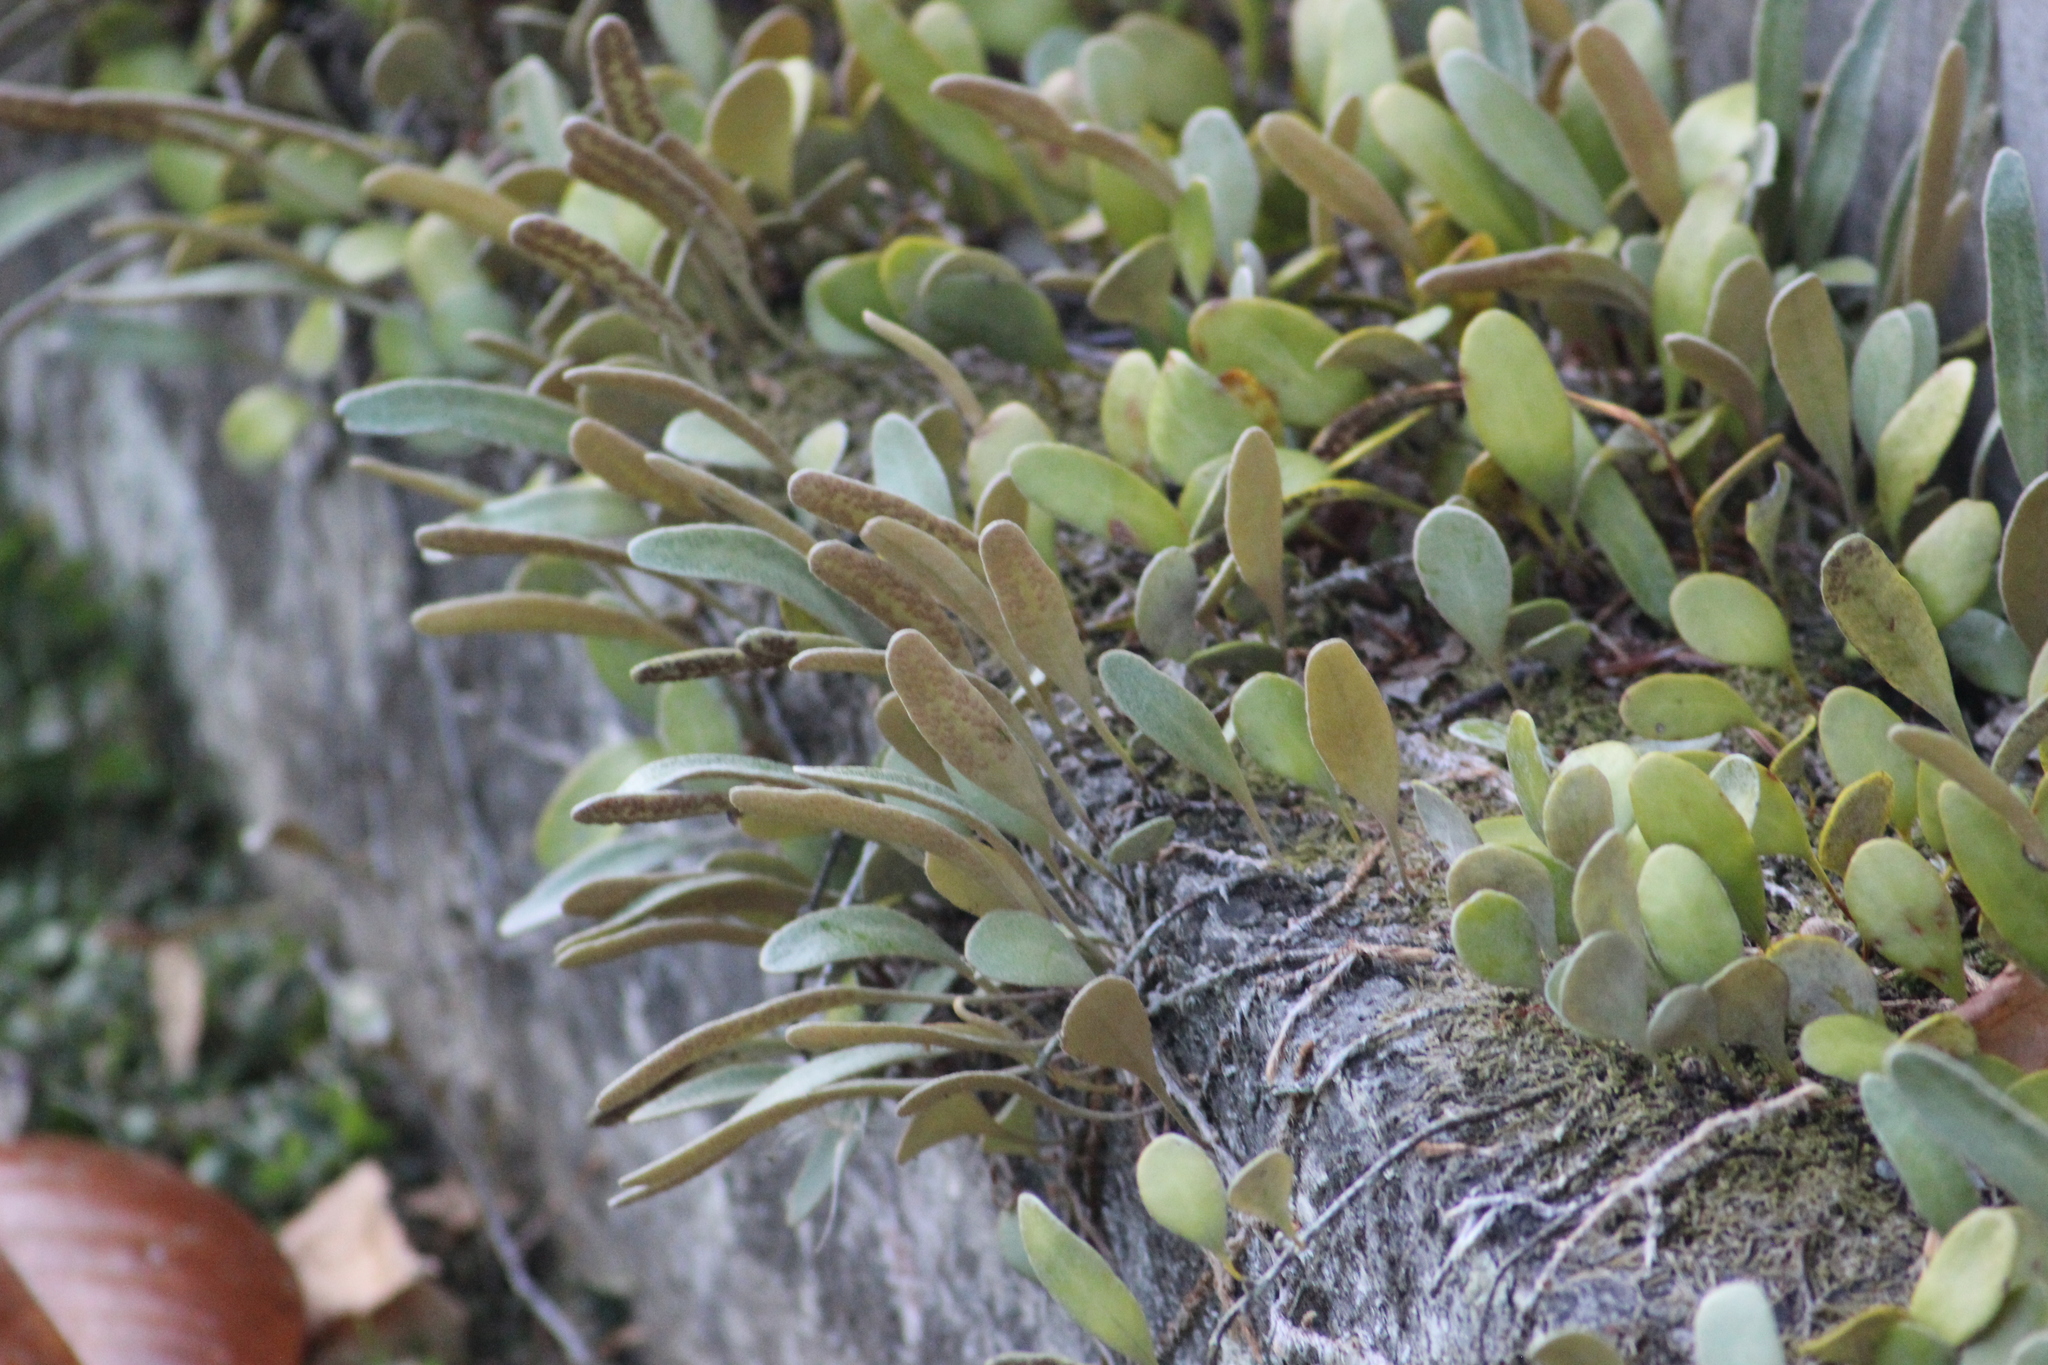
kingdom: Plantae
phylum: Tracheophyta
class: Polypodiopsida
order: Polypodiales
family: Polypodiaceae
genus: Pyrrosia
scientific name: Pyrrosia eleagnifolia
